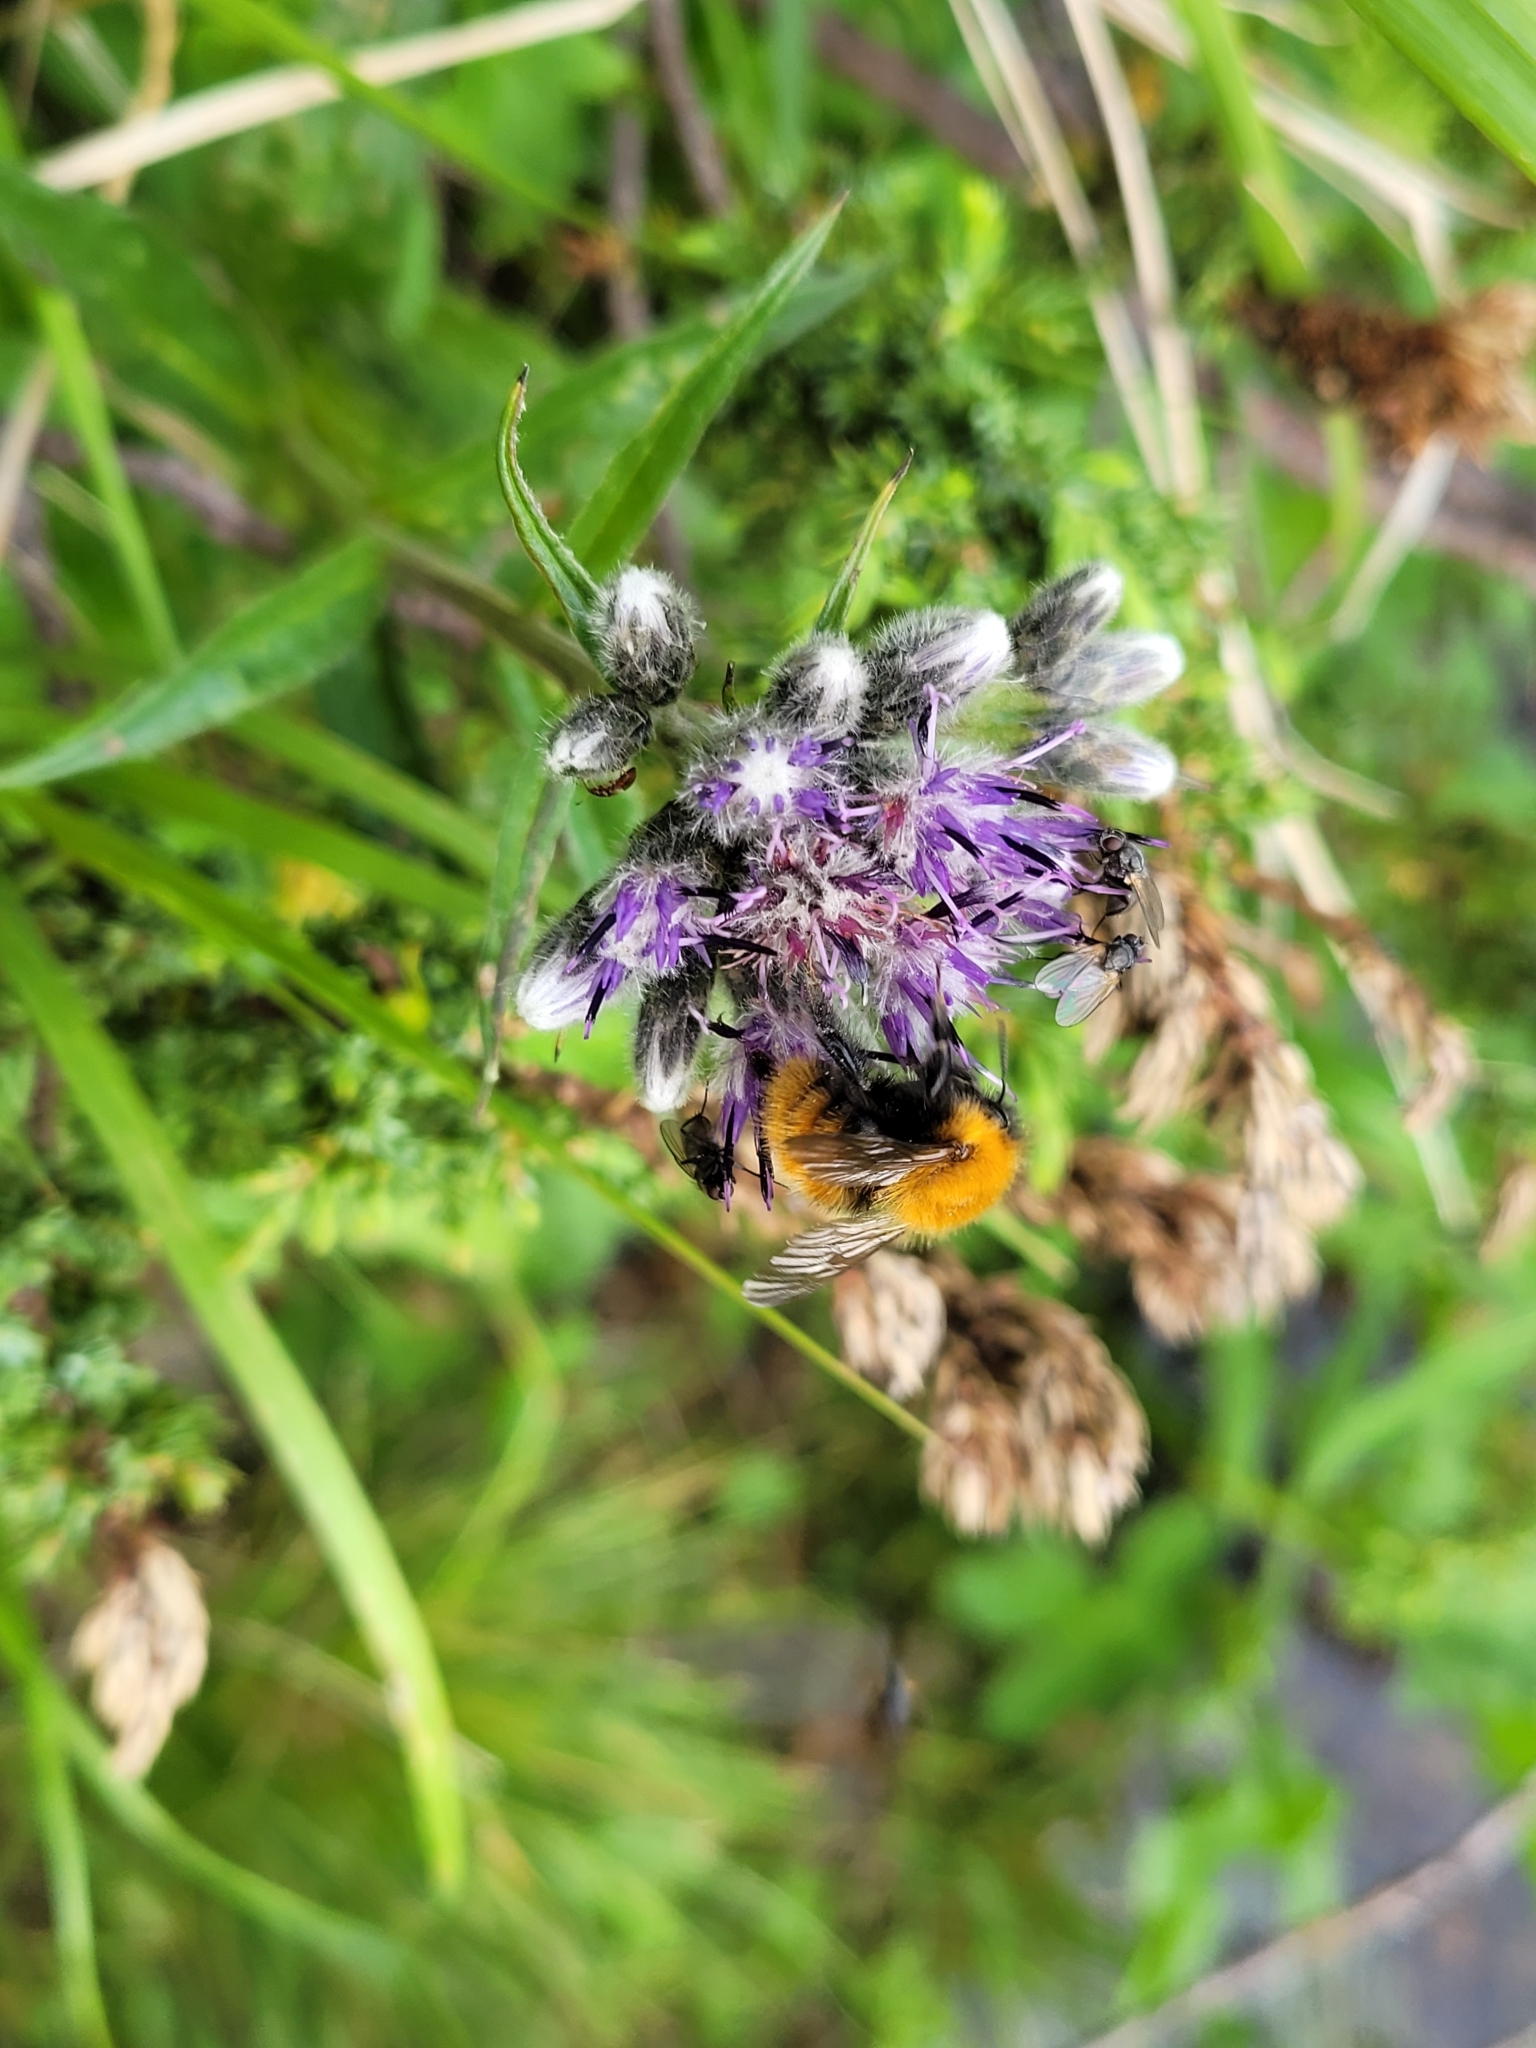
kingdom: Animalia
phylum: Arthropoda
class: Insecta
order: Hymenoptera
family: Apidae
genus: Bombus
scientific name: Bombus pascuorum
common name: Common carder bee
